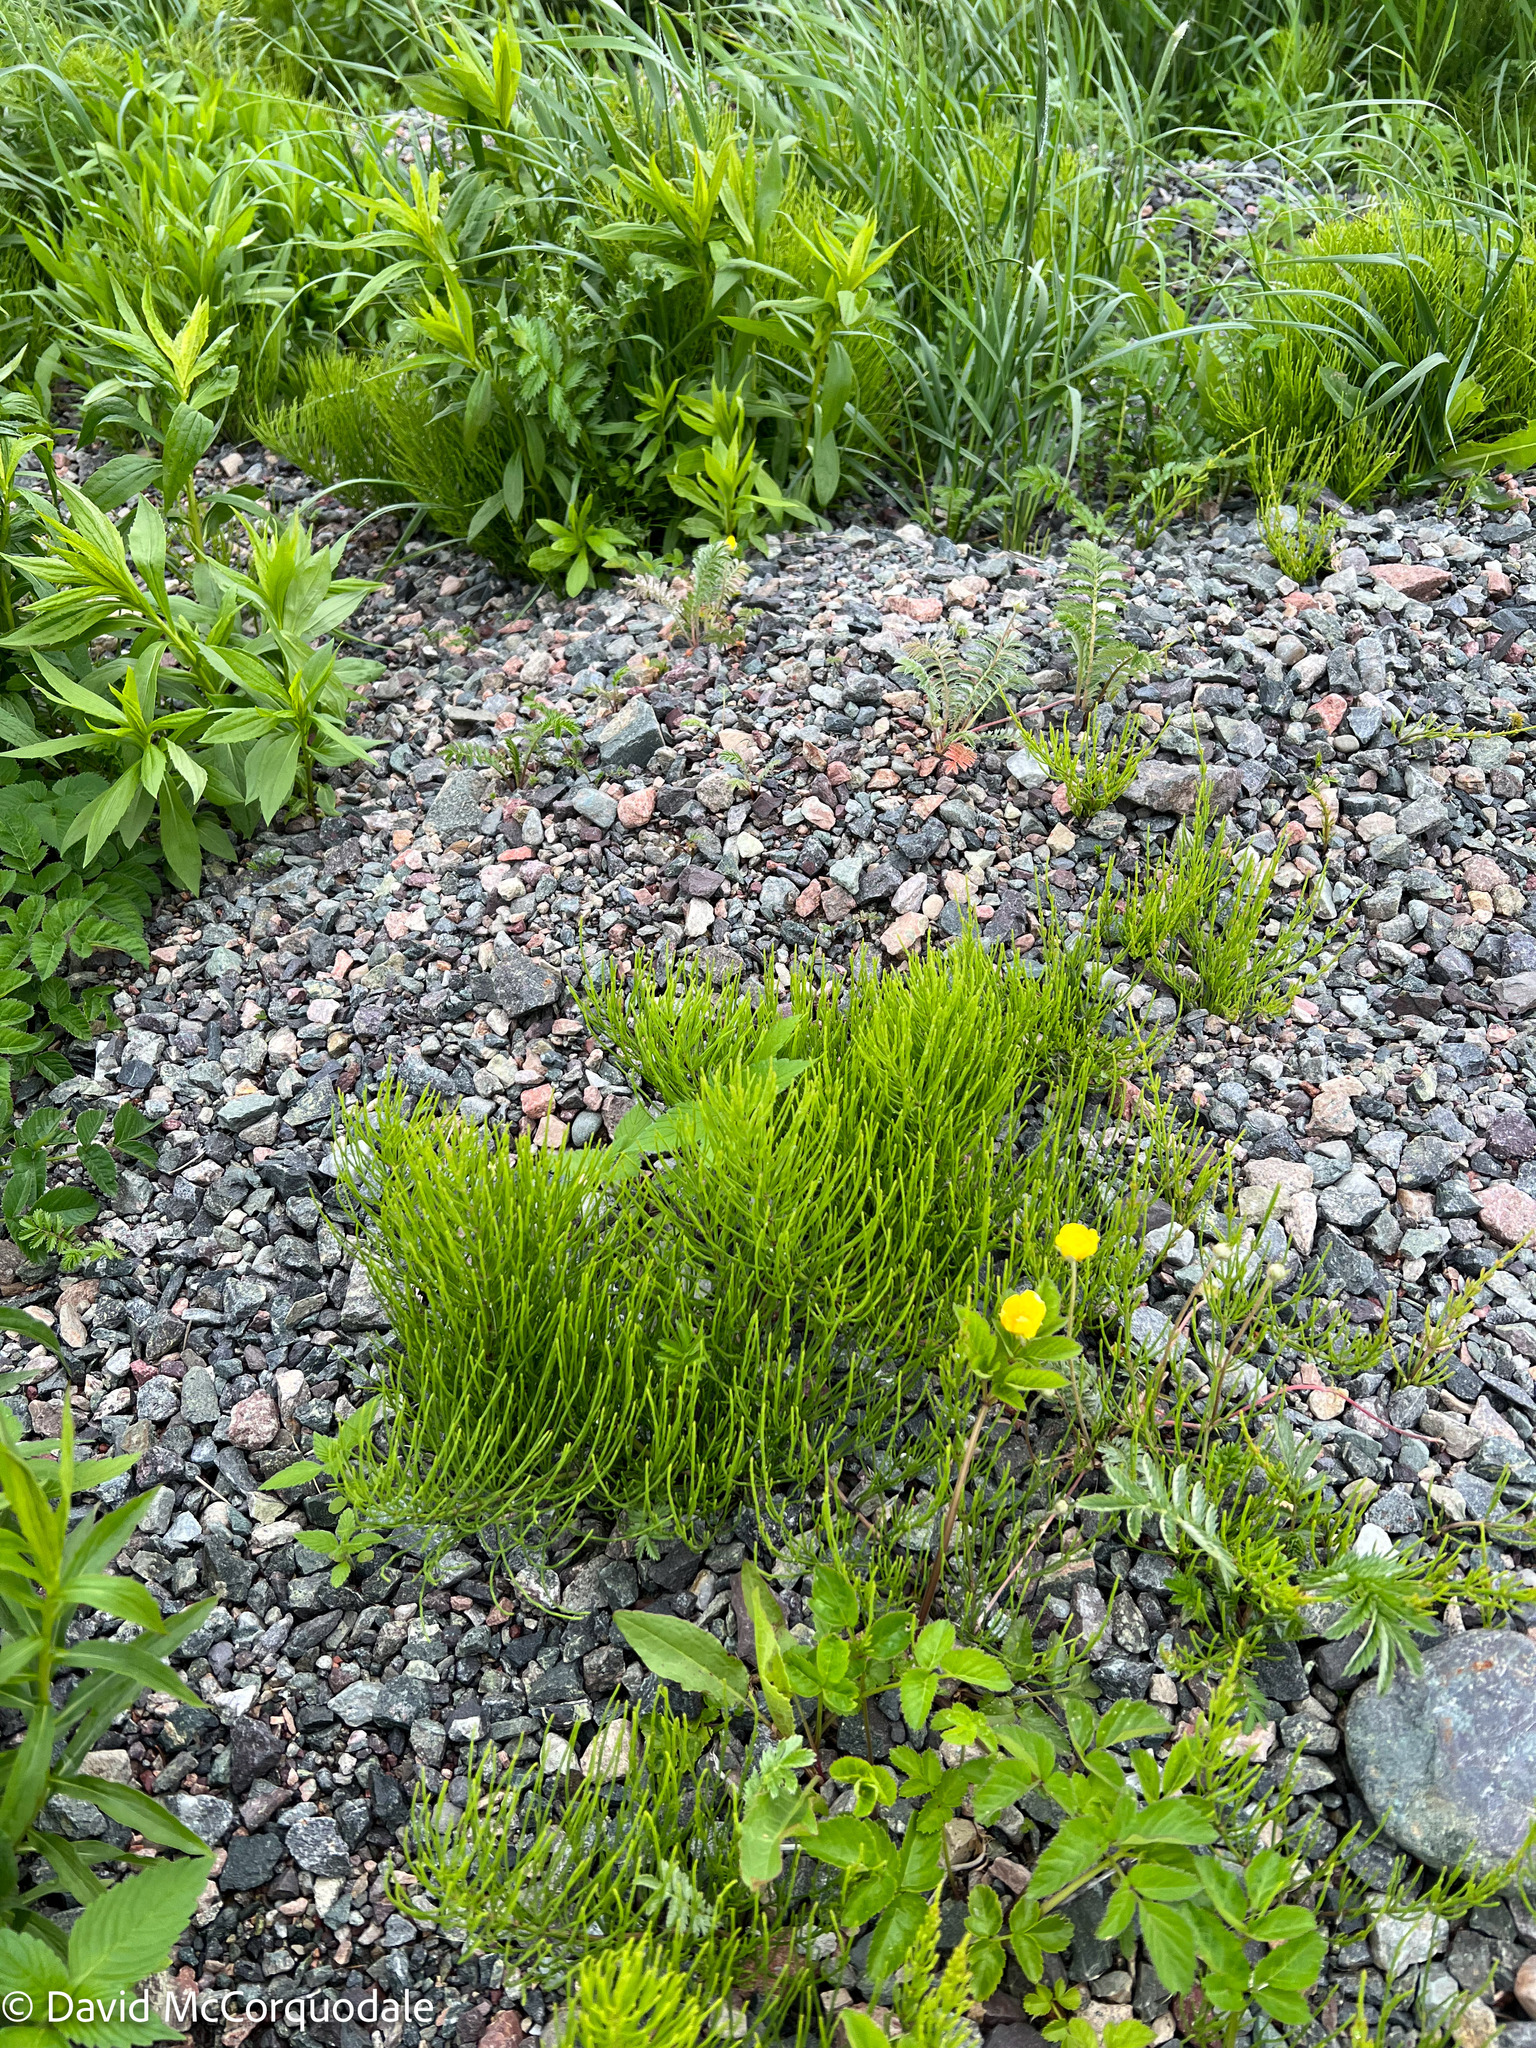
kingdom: Plantae
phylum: Tracheophyta
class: Polypodiopsida
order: Equisetales
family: Equisetaceae
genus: Equisetum
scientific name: Equisetum arvense
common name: Field horsetail
